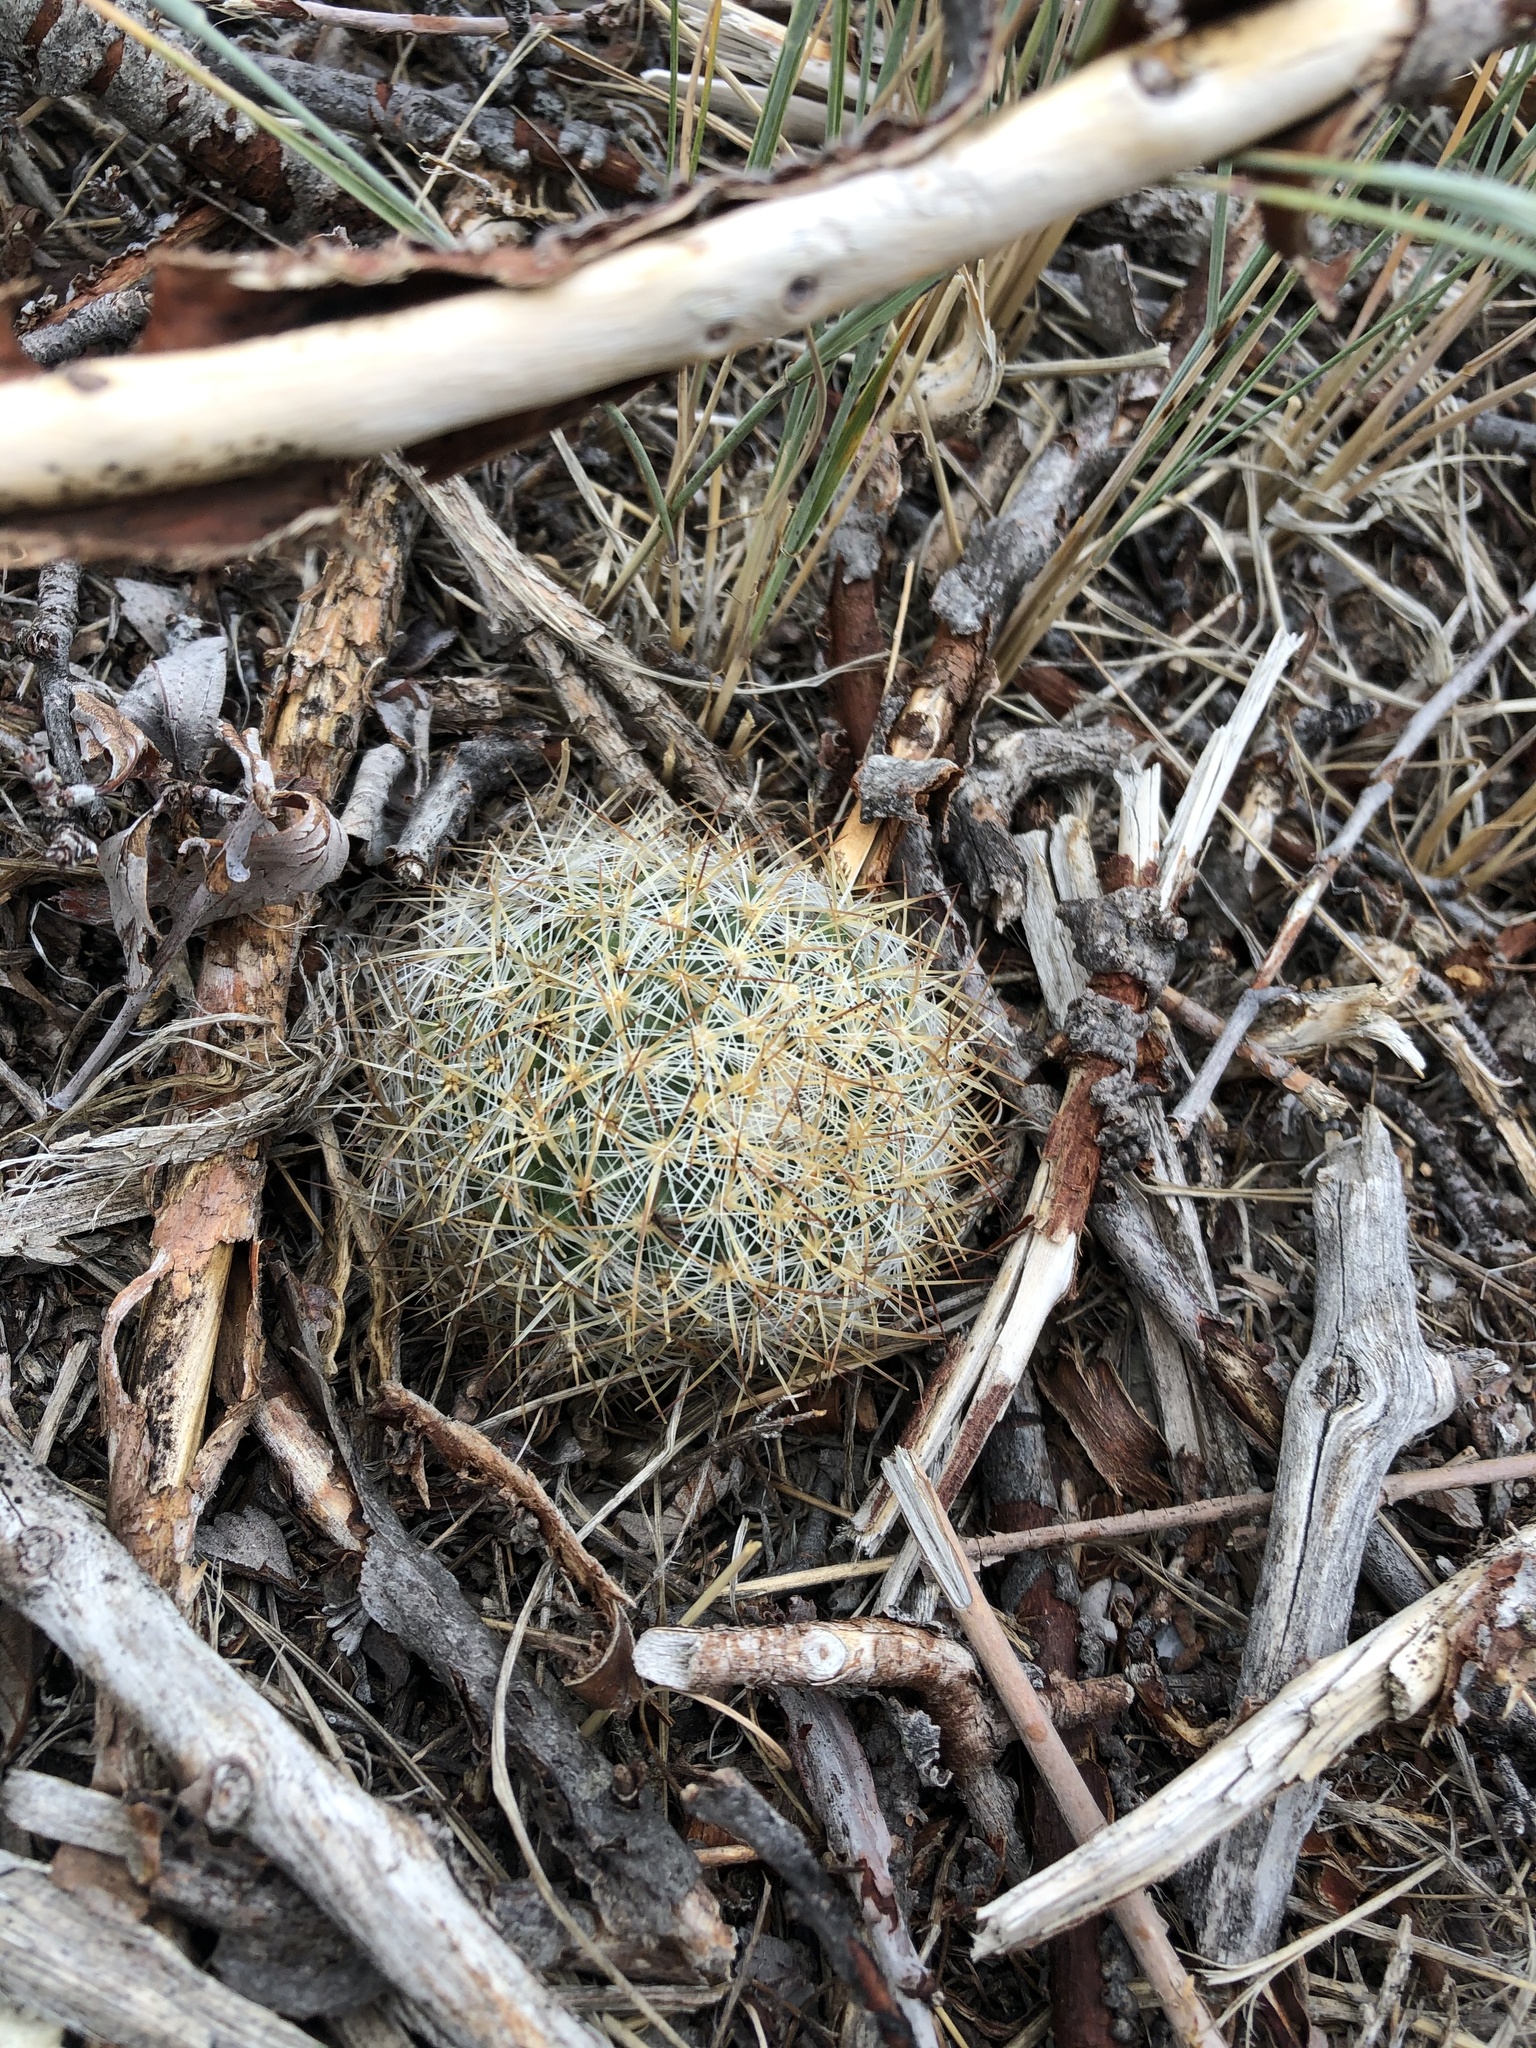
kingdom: Plantae
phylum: Tracheophyta
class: Magnoliopsida
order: Caryophyllales
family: Cactaceae
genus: Pediocactus
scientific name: Pediocactus simpsonii
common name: Simpson's hedgehog cactus
